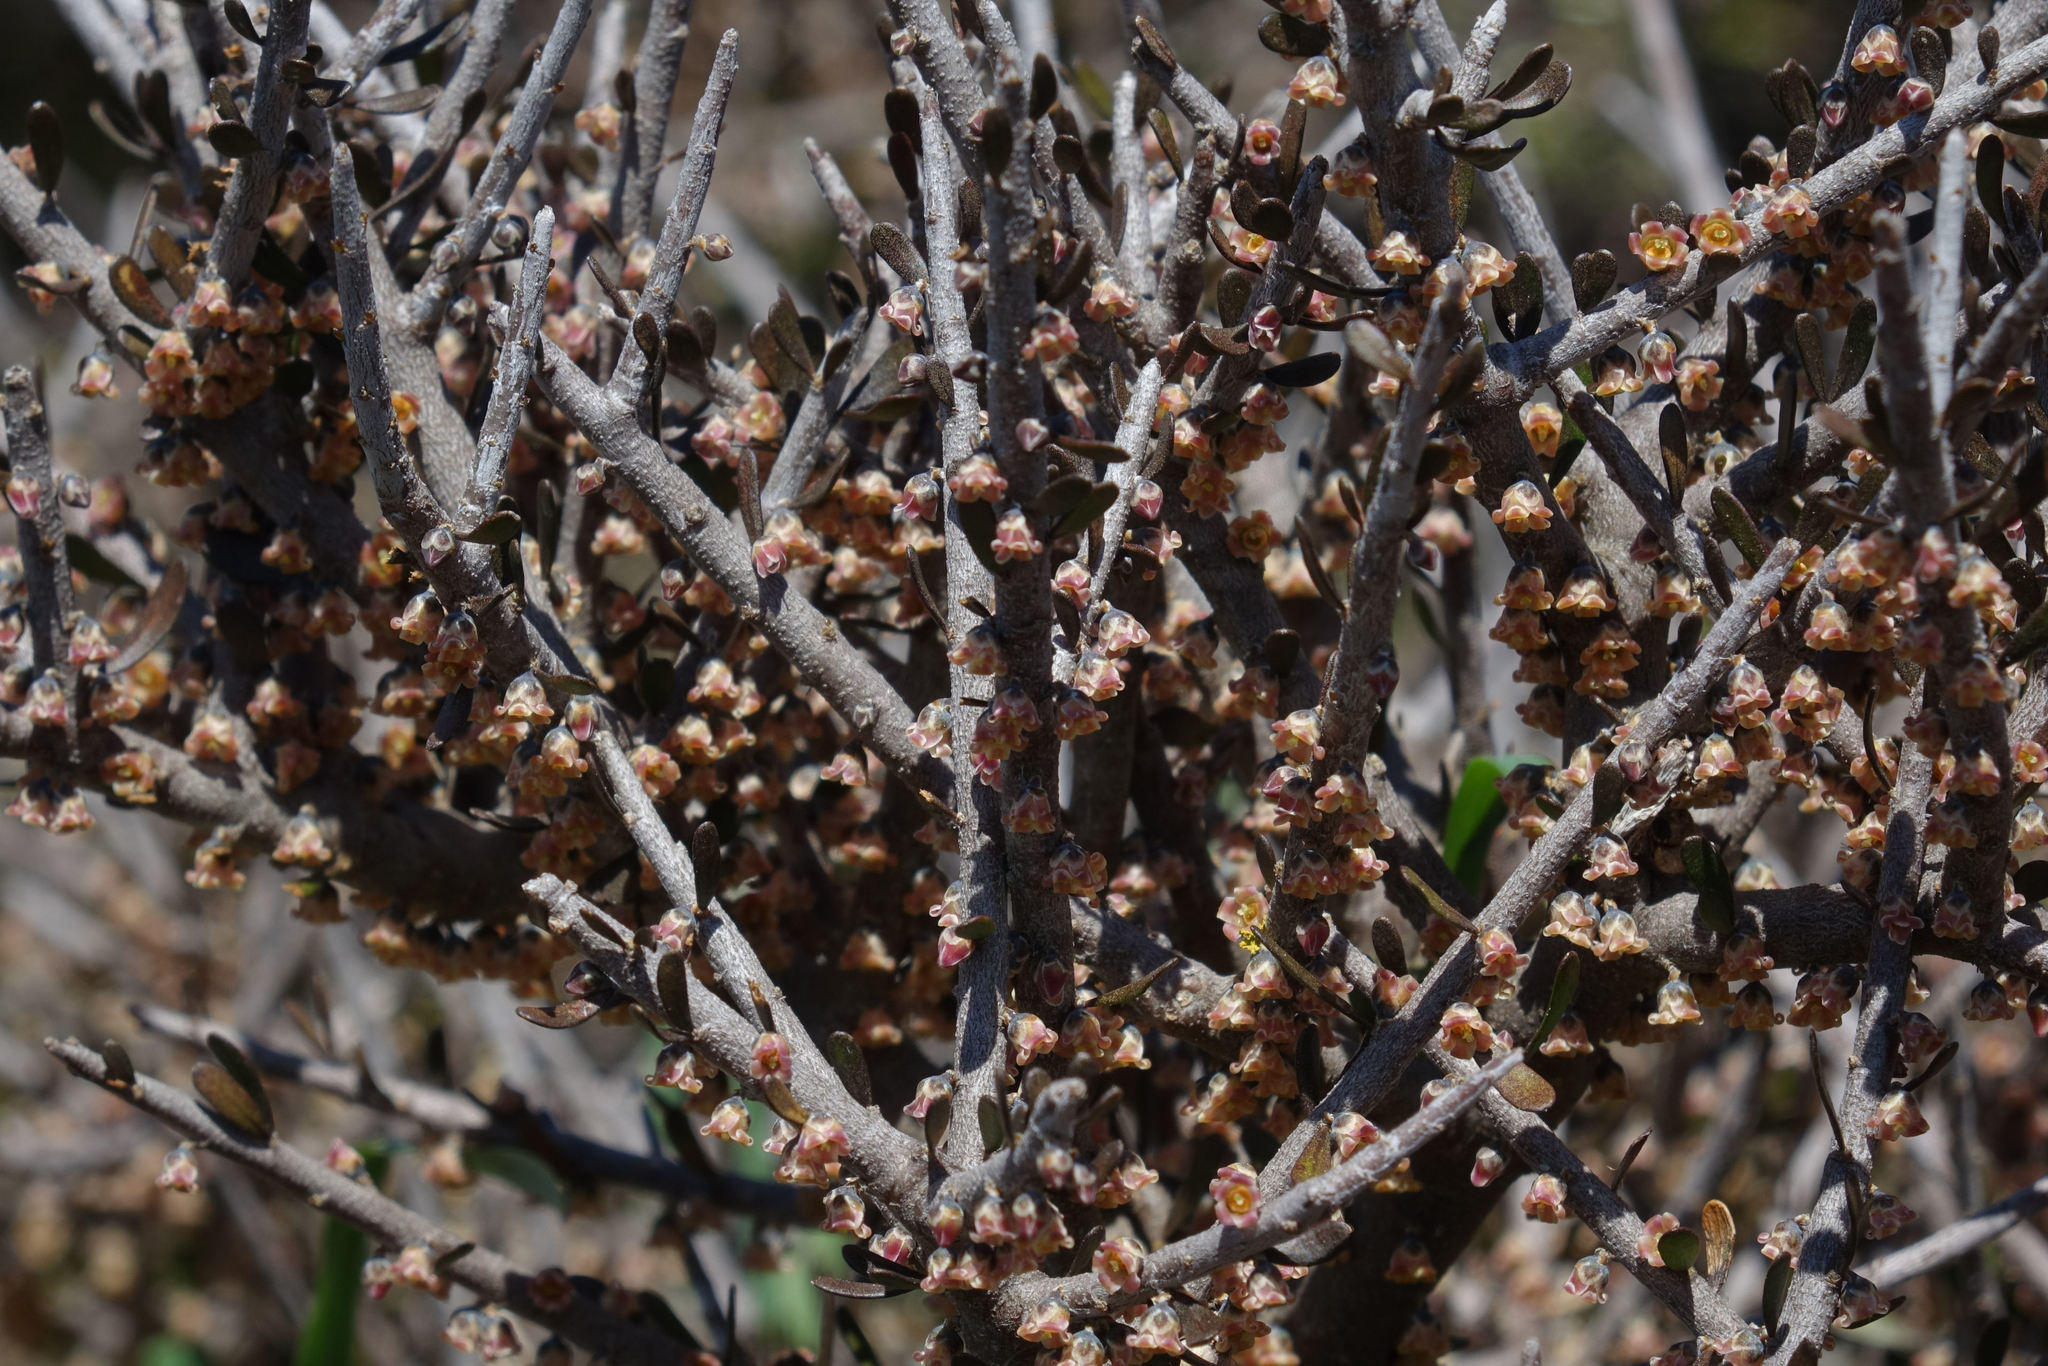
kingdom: Plantae
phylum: Tracheophyta
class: Magnoliopsida
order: Malpighiales
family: Violaceae
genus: Melicytus
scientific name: Melicytus alpinus
